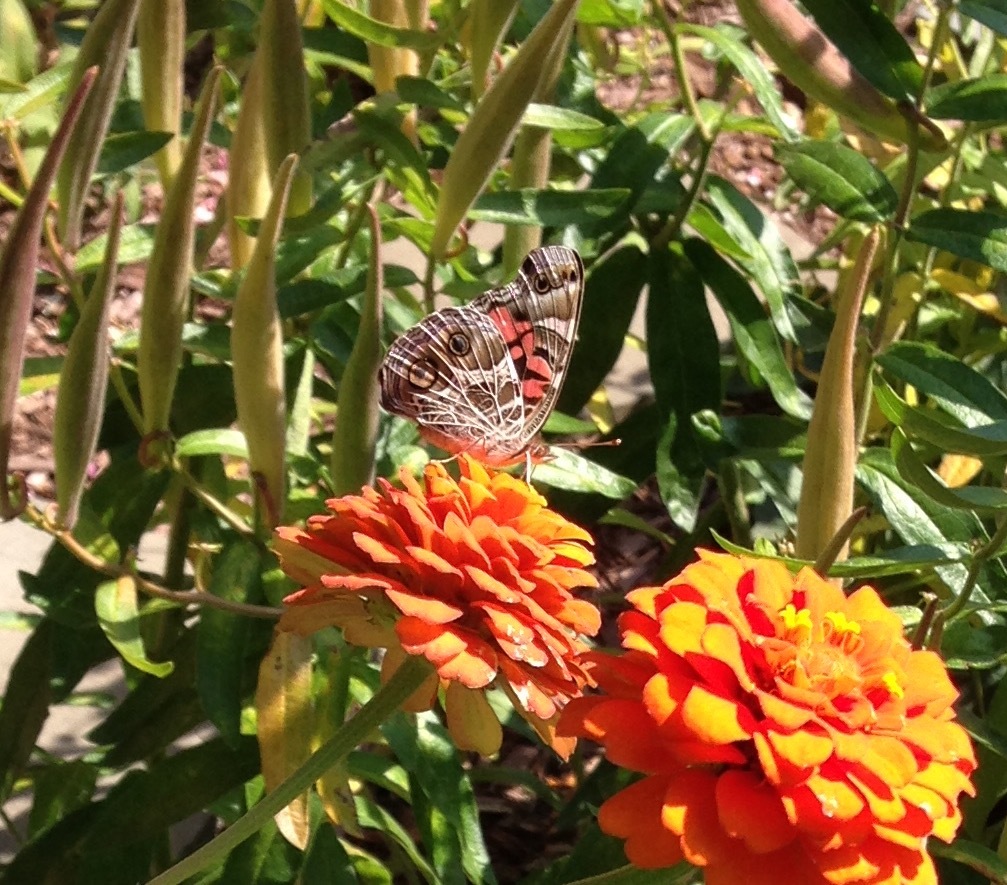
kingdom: Animalia
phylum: Arthropoda
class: Insecta
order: Lepidoptera
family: Nymphalidae
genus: Vanessa
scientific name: Vanessa virginiensis
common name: American lady
